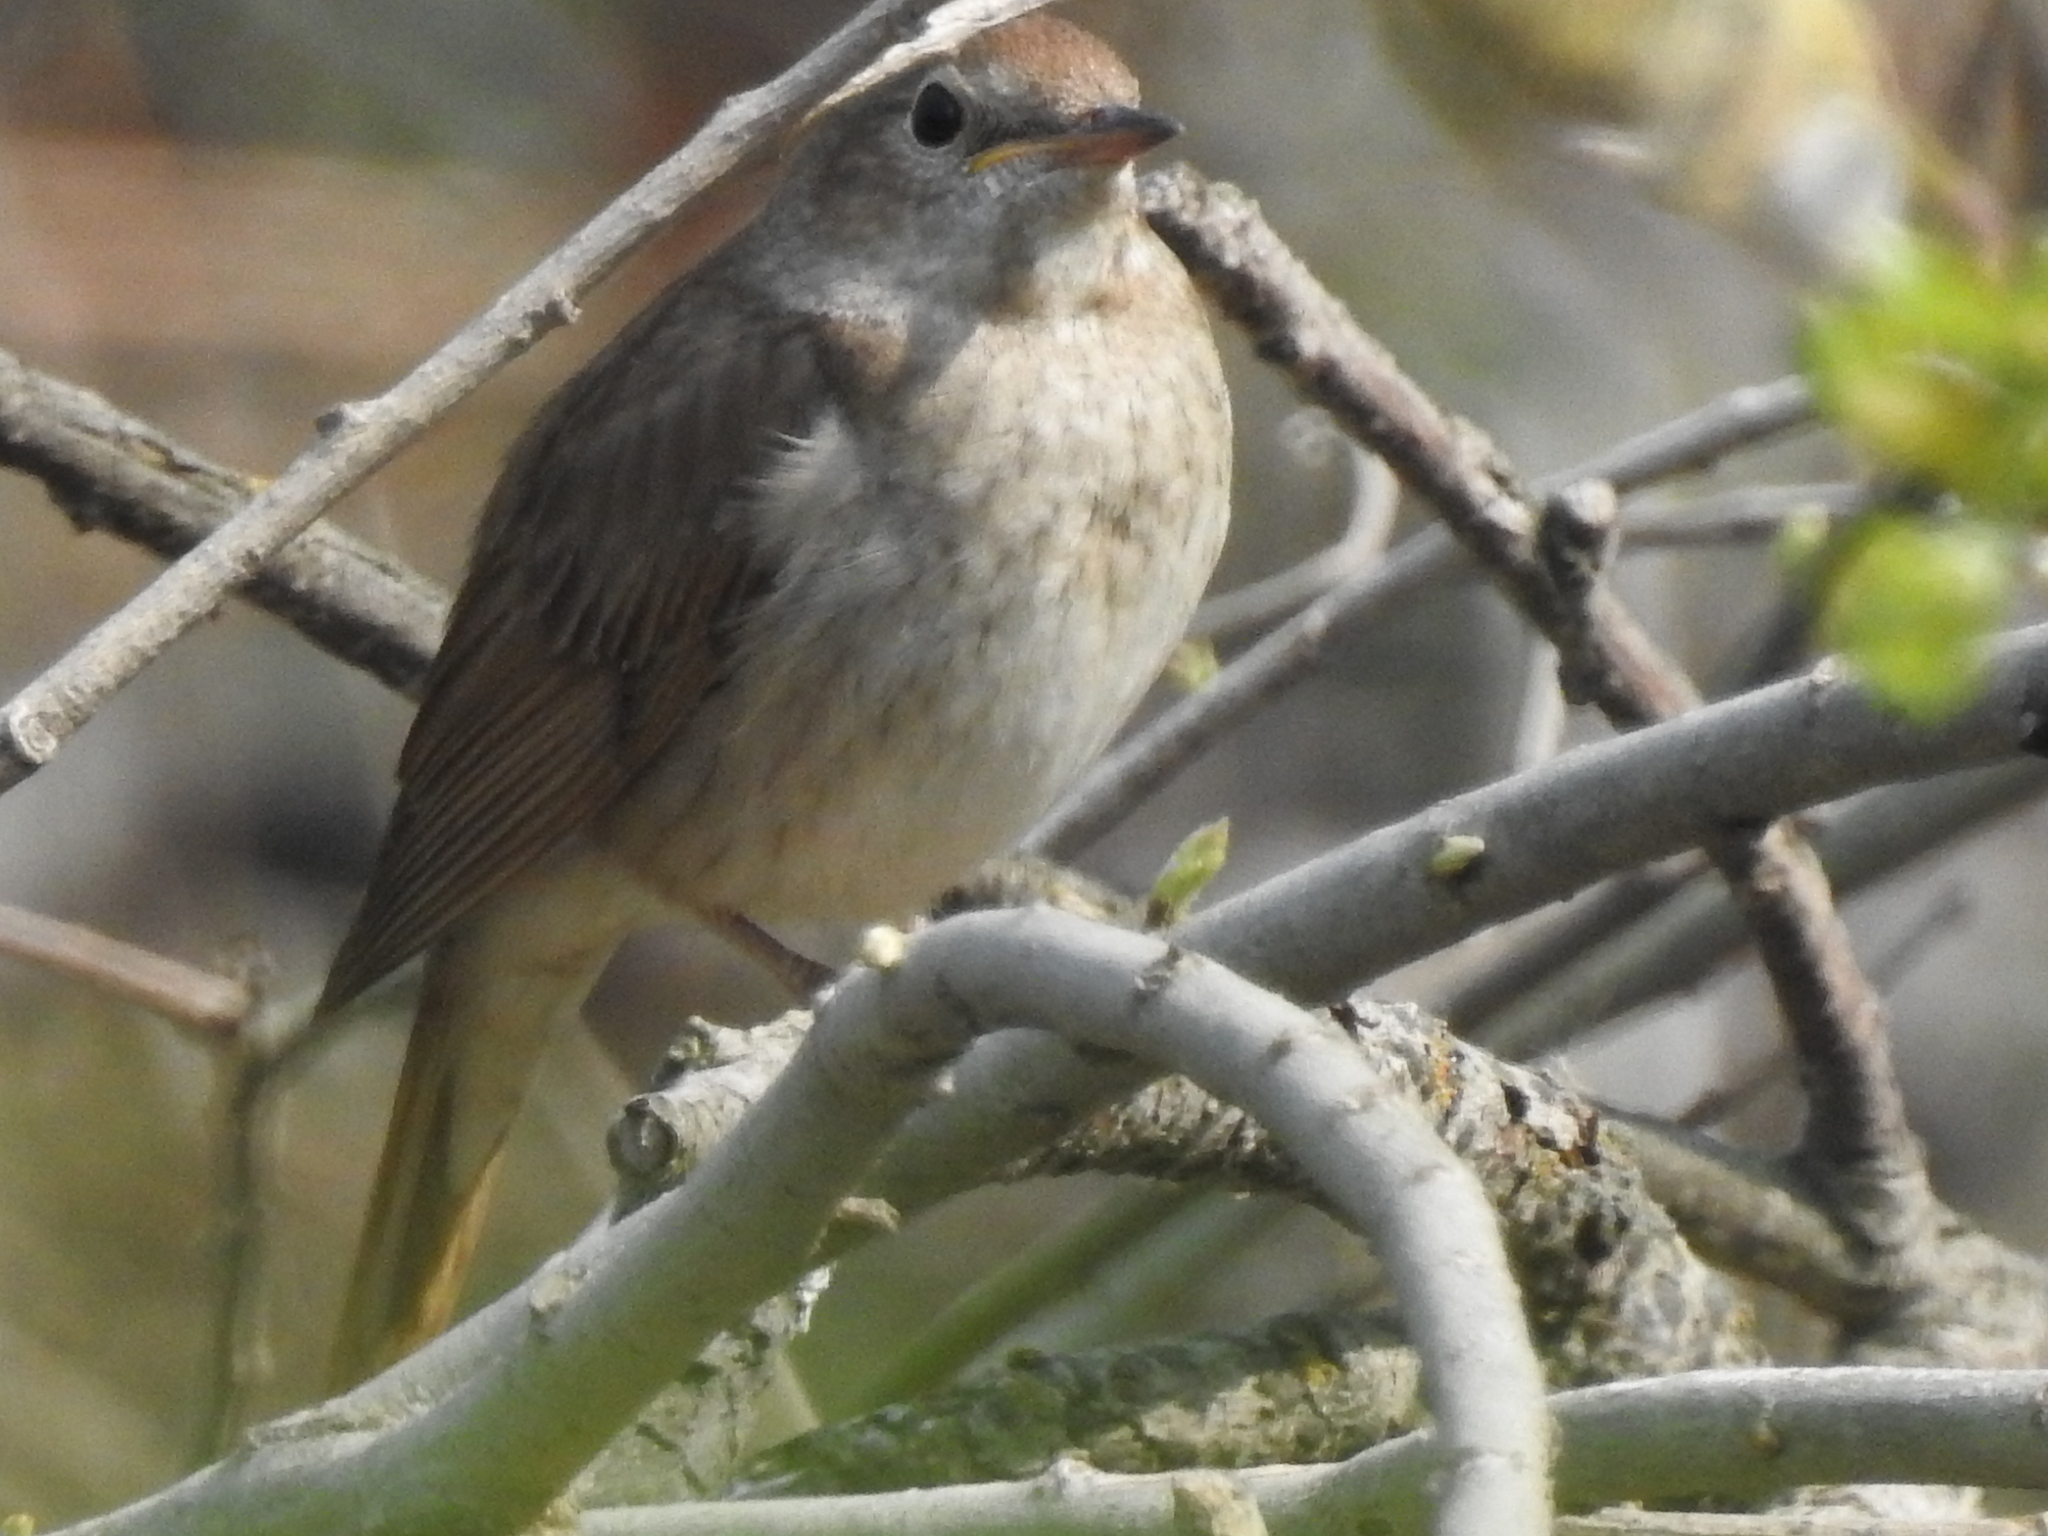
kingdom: Animalia
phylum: Chordata
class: Aves
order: Passeriformes
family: Muscicapidae
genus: Luscinia
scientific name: Luscinia luscinia
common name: Thrush nightingale
